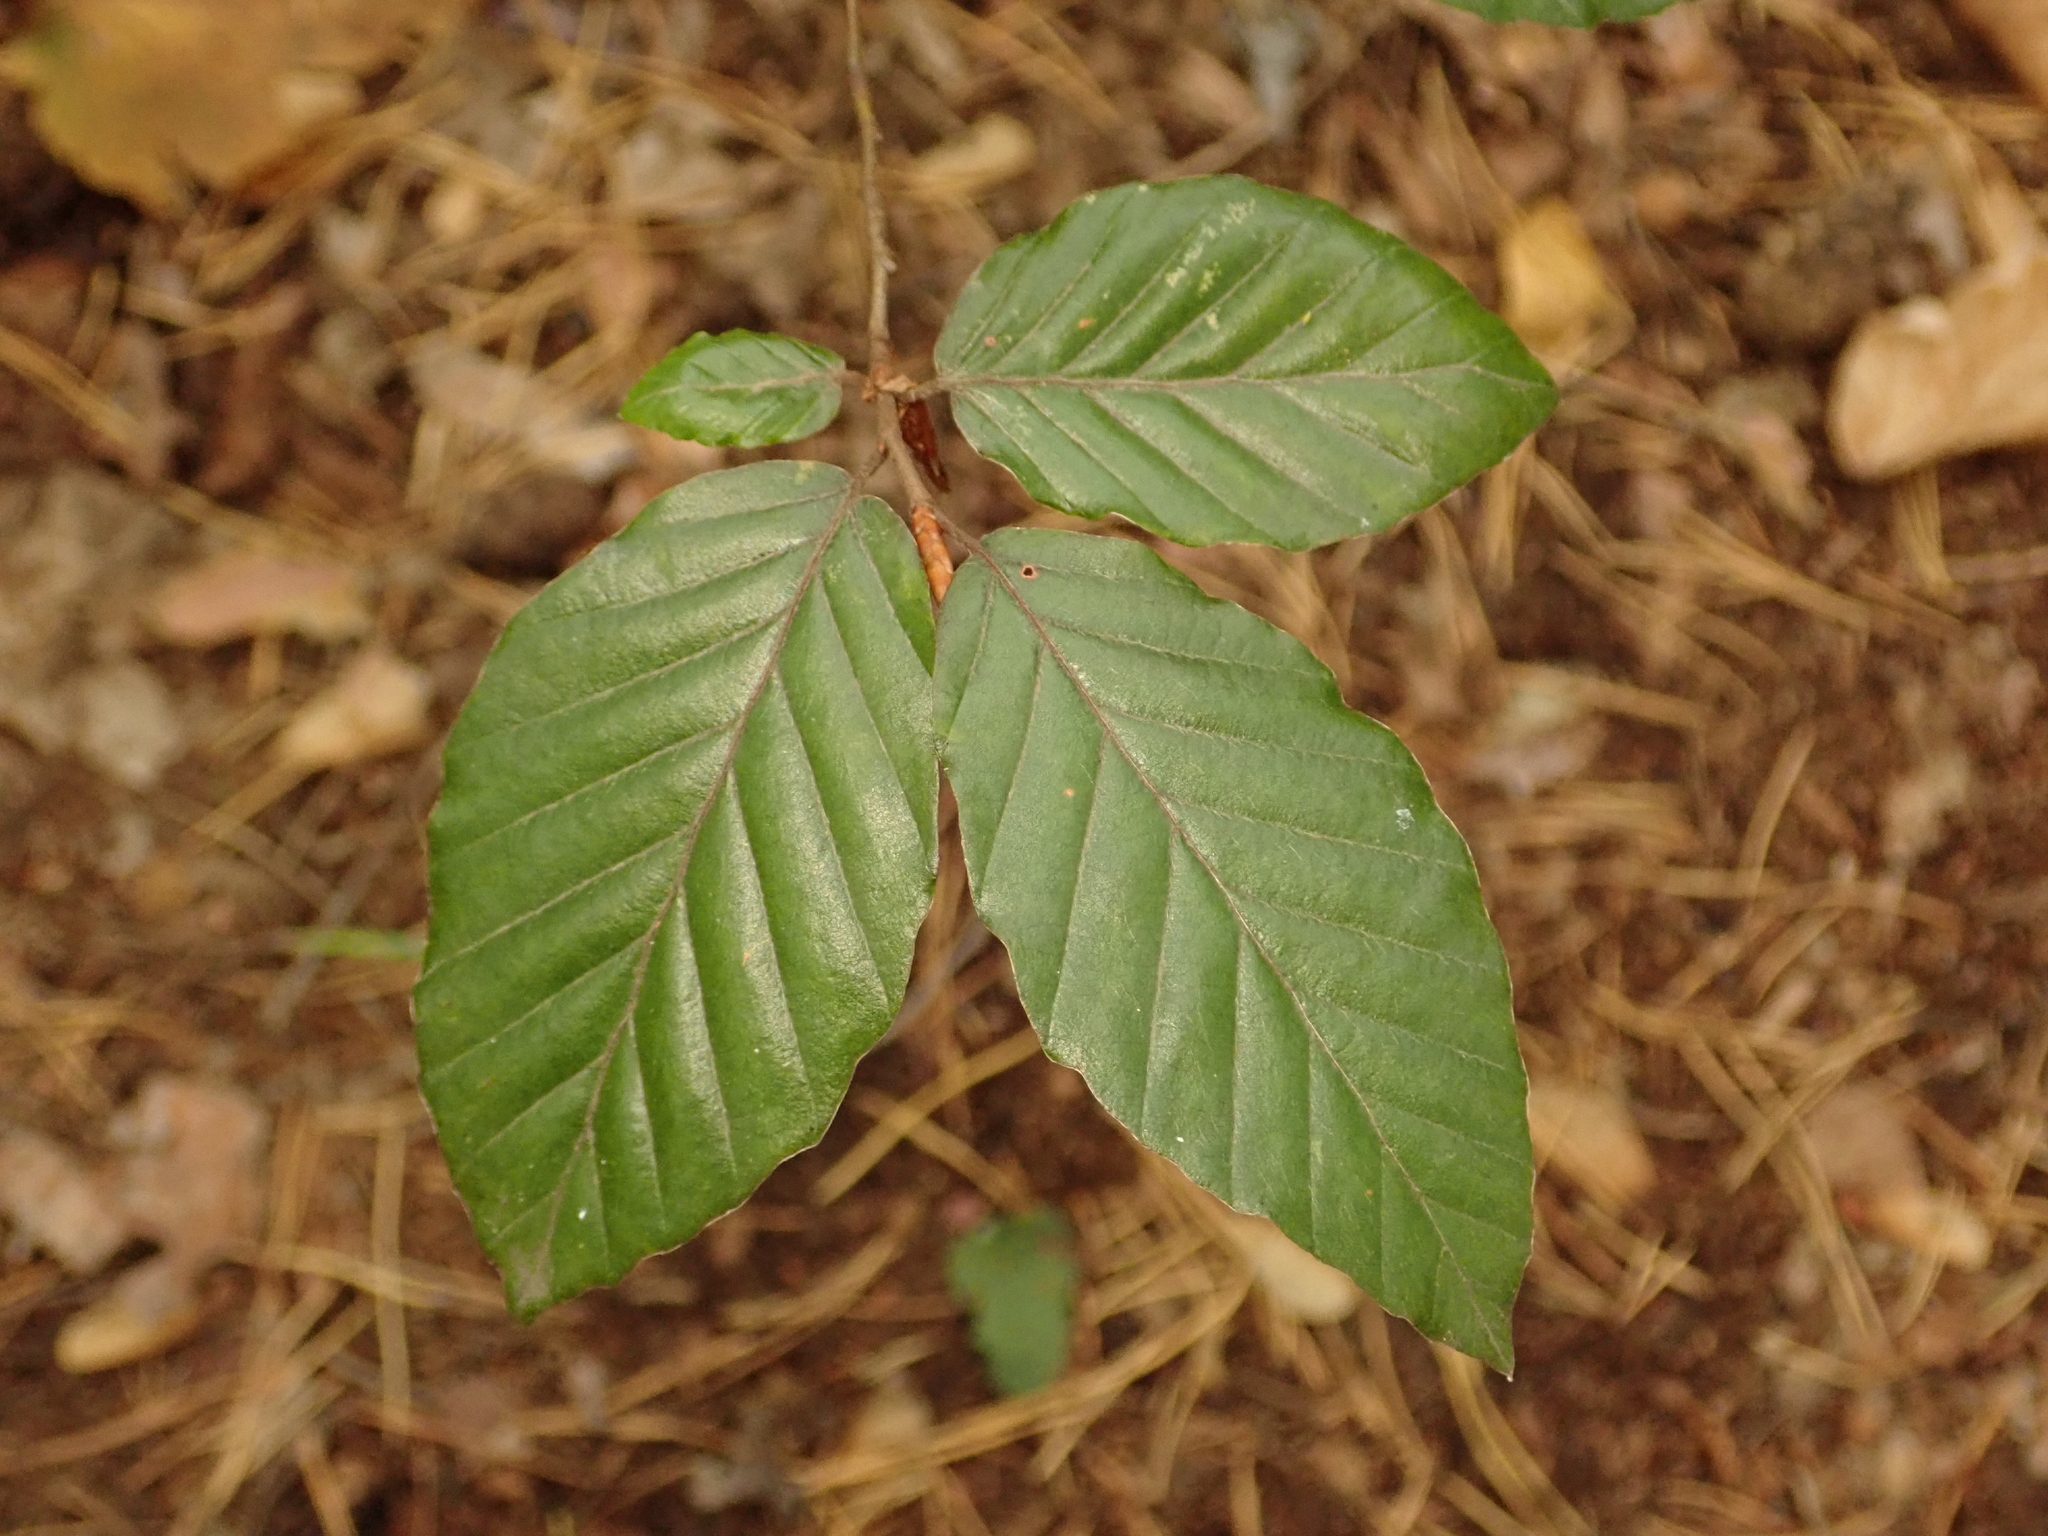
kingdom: Plantae
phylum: Tracheophyta
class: Magnoliopsida
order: Fagales
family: Fagaceae
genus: Fagus
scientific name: Fagus sylvatica
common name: Beech
